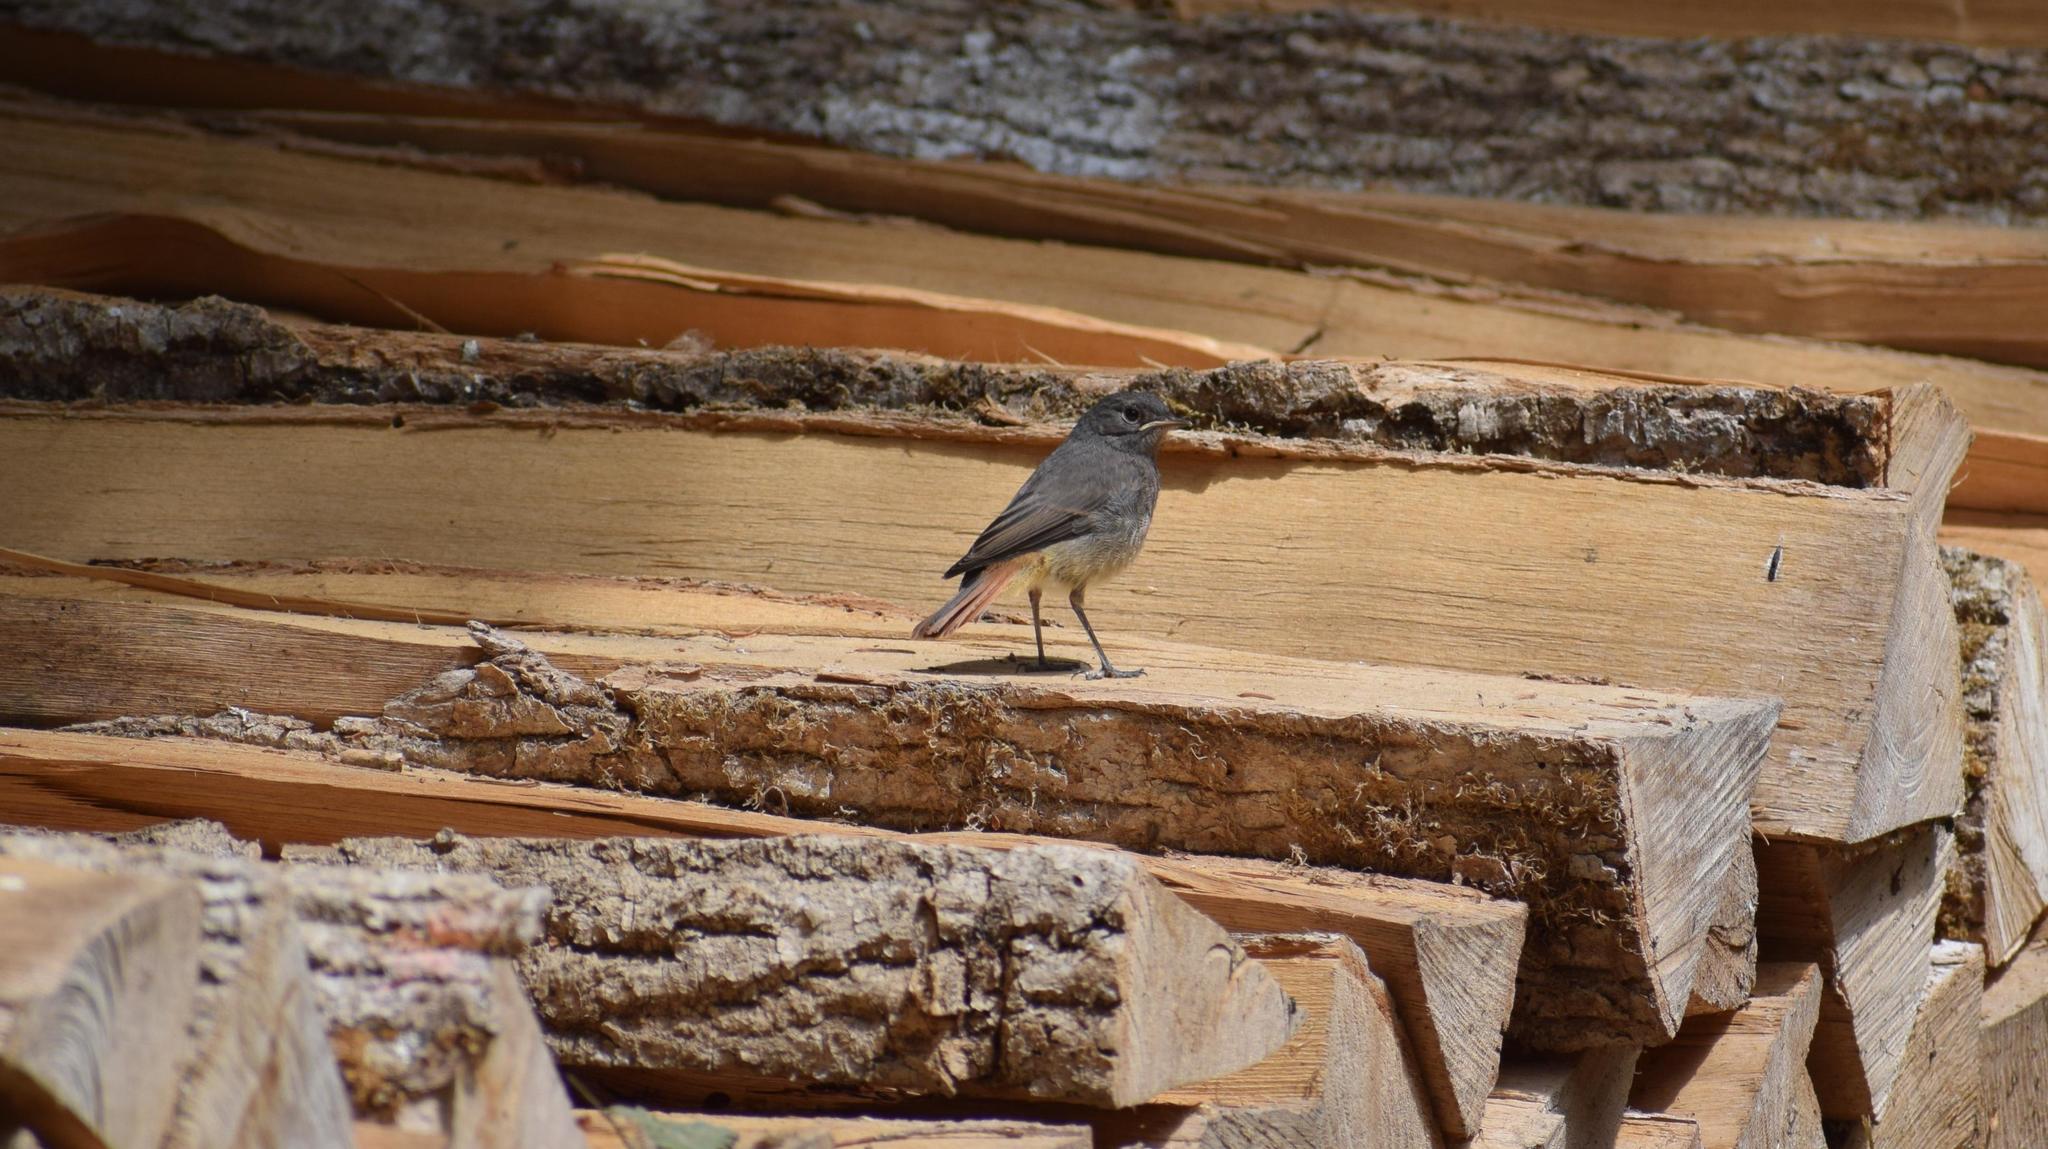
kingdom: Animalia
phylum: Chordata
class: Aves
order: Passeriformes
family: Muscicapidae
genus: Phoenicurus
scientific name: Phoenicurus ochruros
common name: Black redstart
